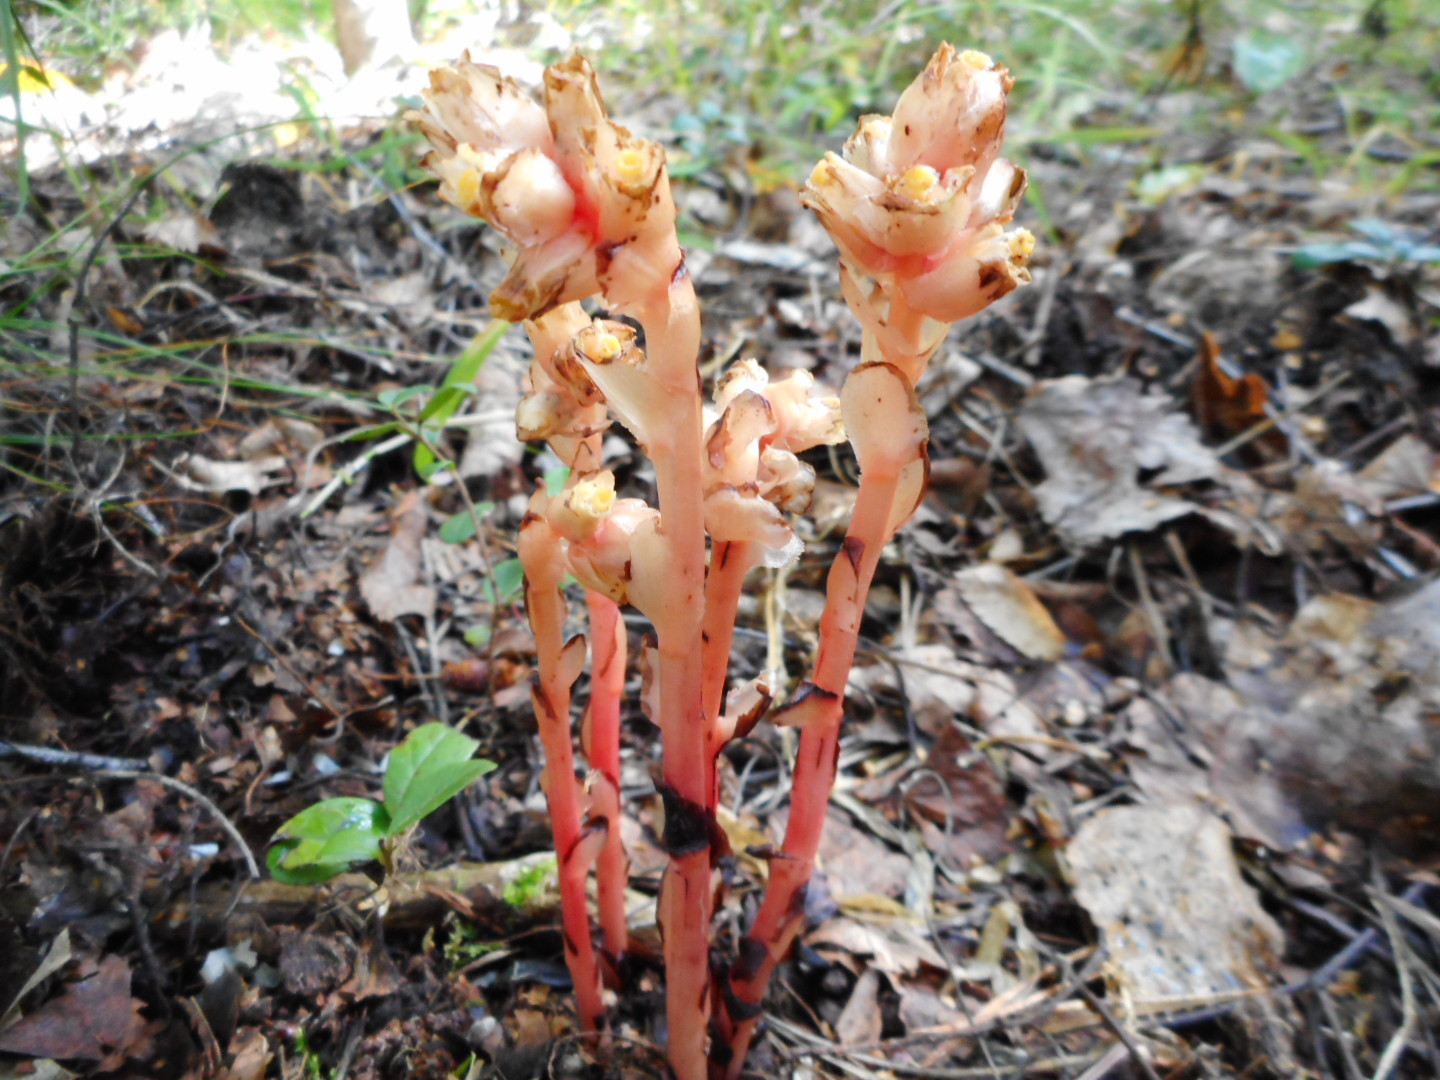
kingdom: Plantae
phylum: Tracheophyta
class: Magnoliopsida
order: Ericales
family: Ericaceae
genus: Hypopitys
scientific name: Hypopitys monotropa
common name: Yellow bird's-nest
